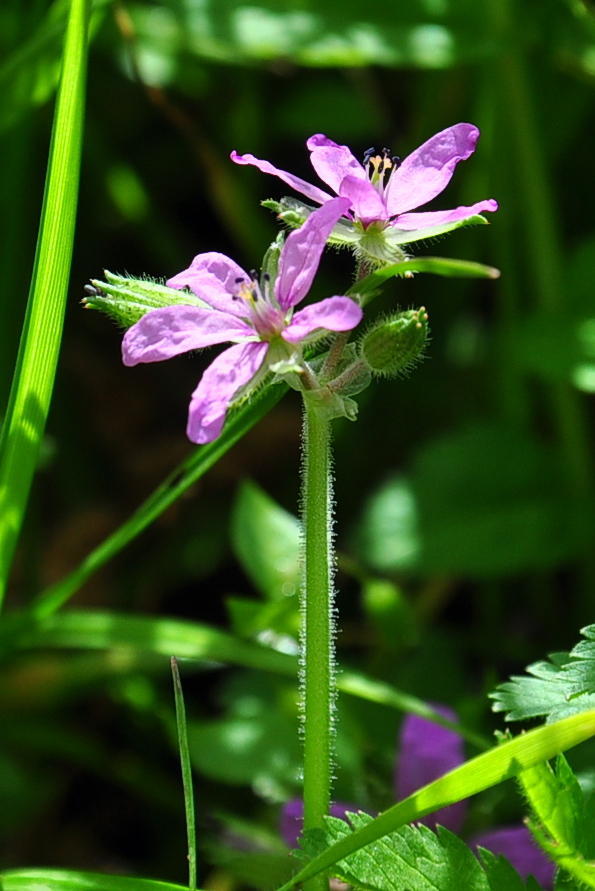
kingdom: Plantae
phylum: Tracheophyta
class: Magnoliopsida
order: Geraniales
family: Geraniaceae
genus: Erodium
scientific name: Erodium moschatum
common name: Musk stork's-bill
